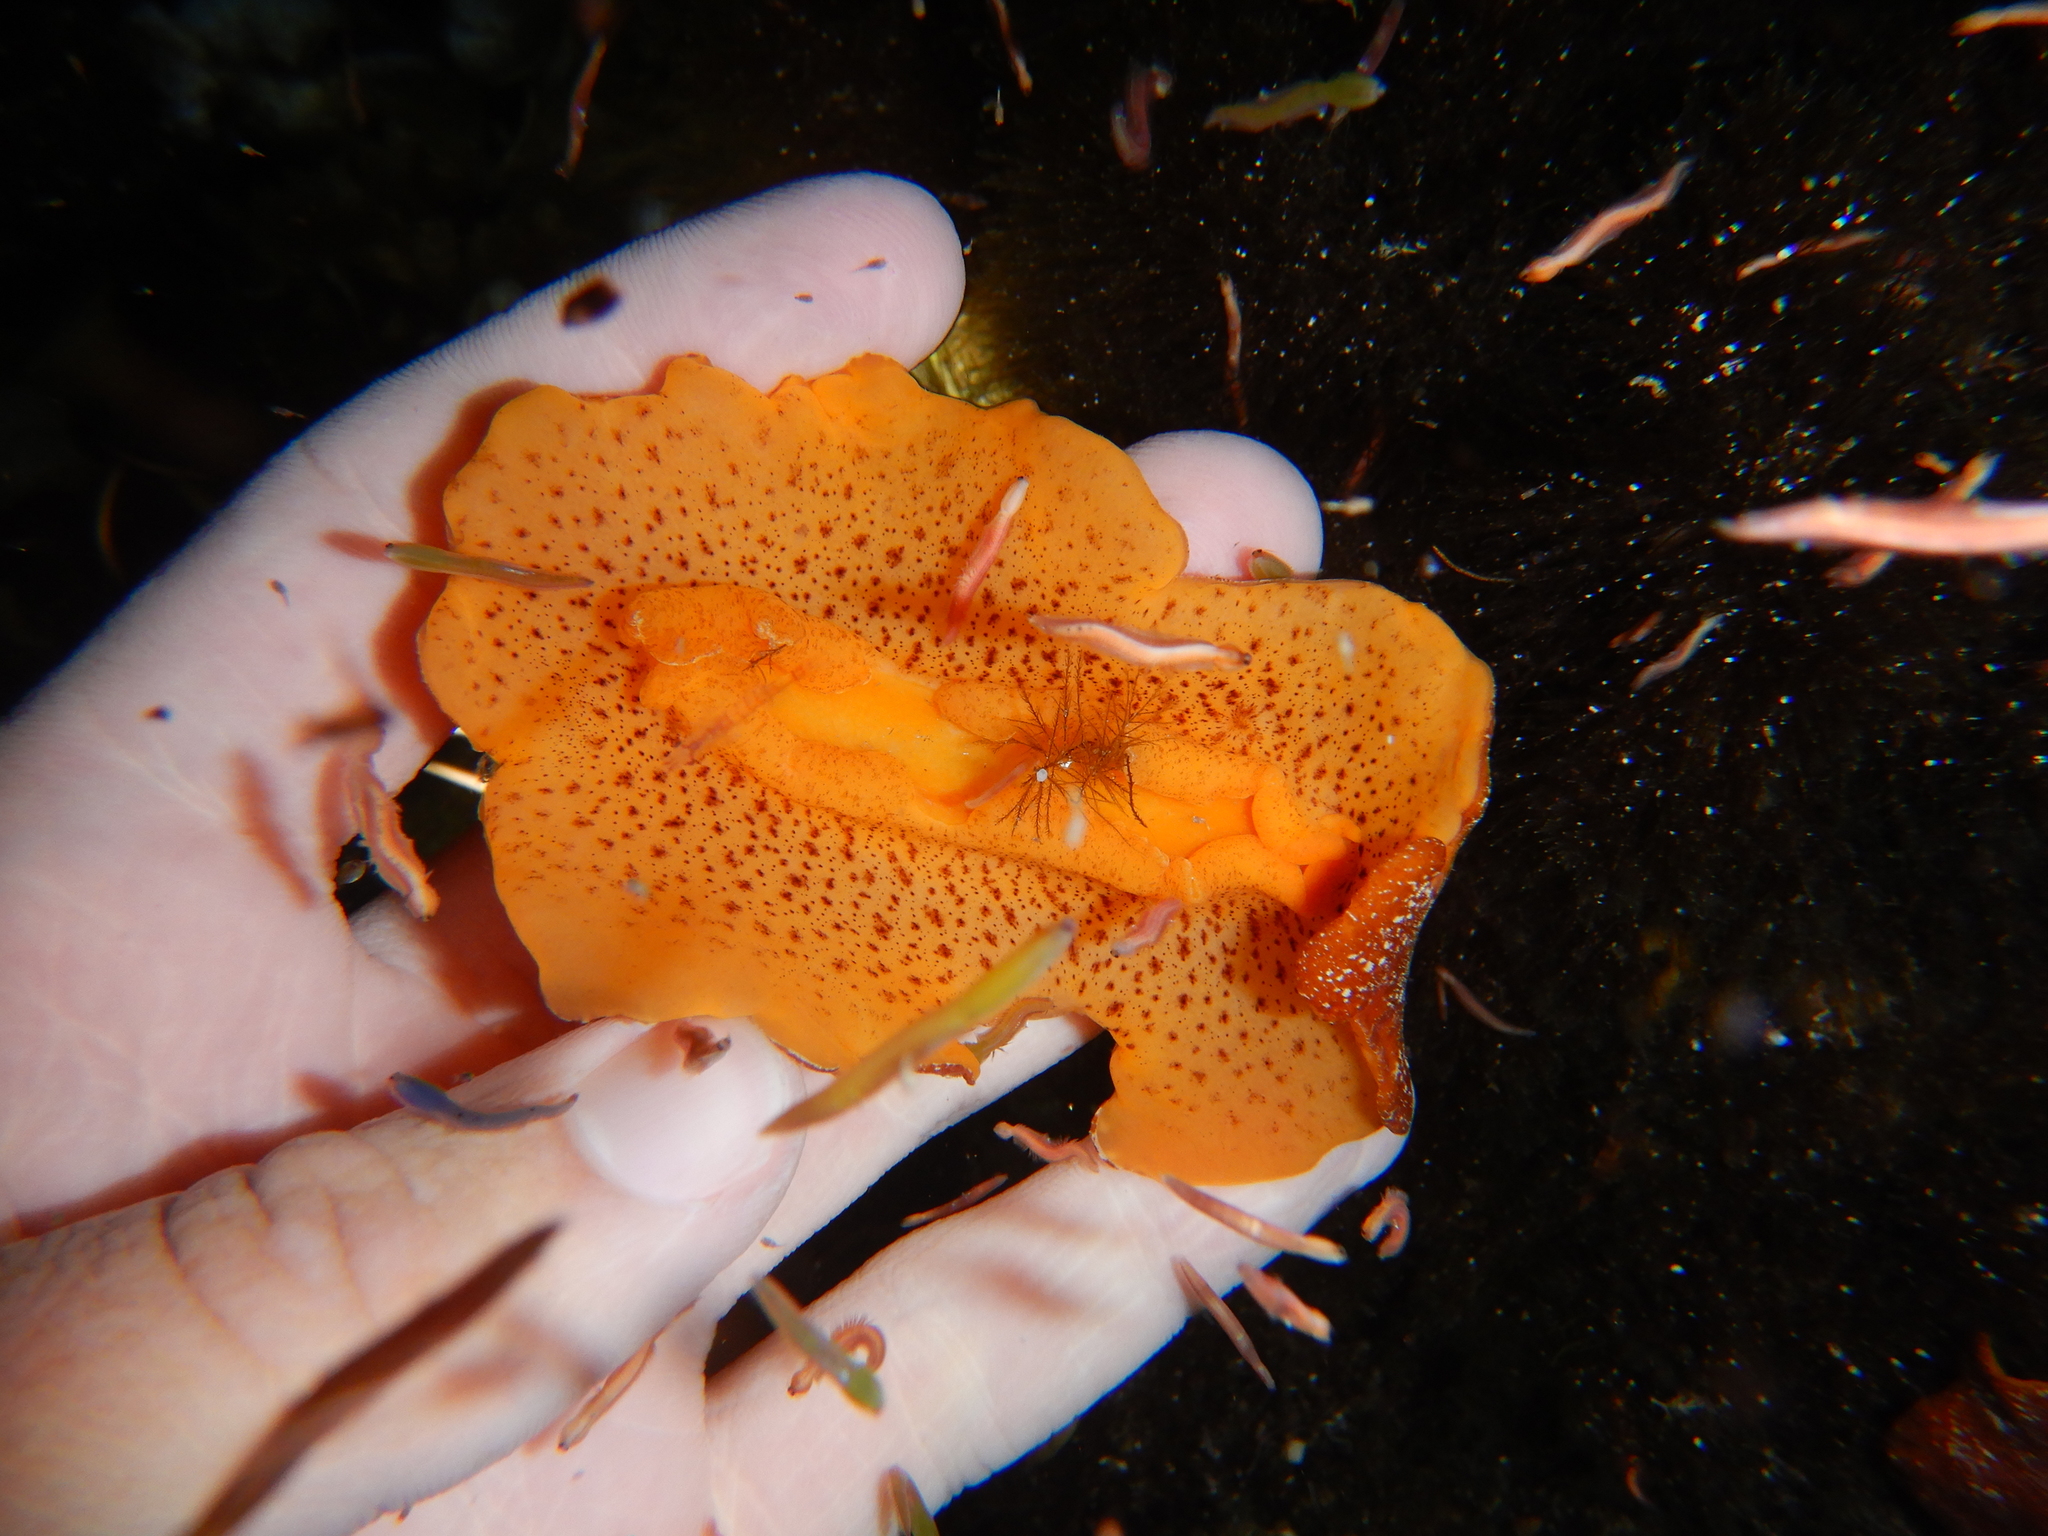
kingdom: Animalia
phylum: Mollusca
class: Gastropoda
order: Nudibranchia
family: Discodorididae
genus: Platydoris
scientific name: Platydoris argo
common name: Redbrown leathery doris
